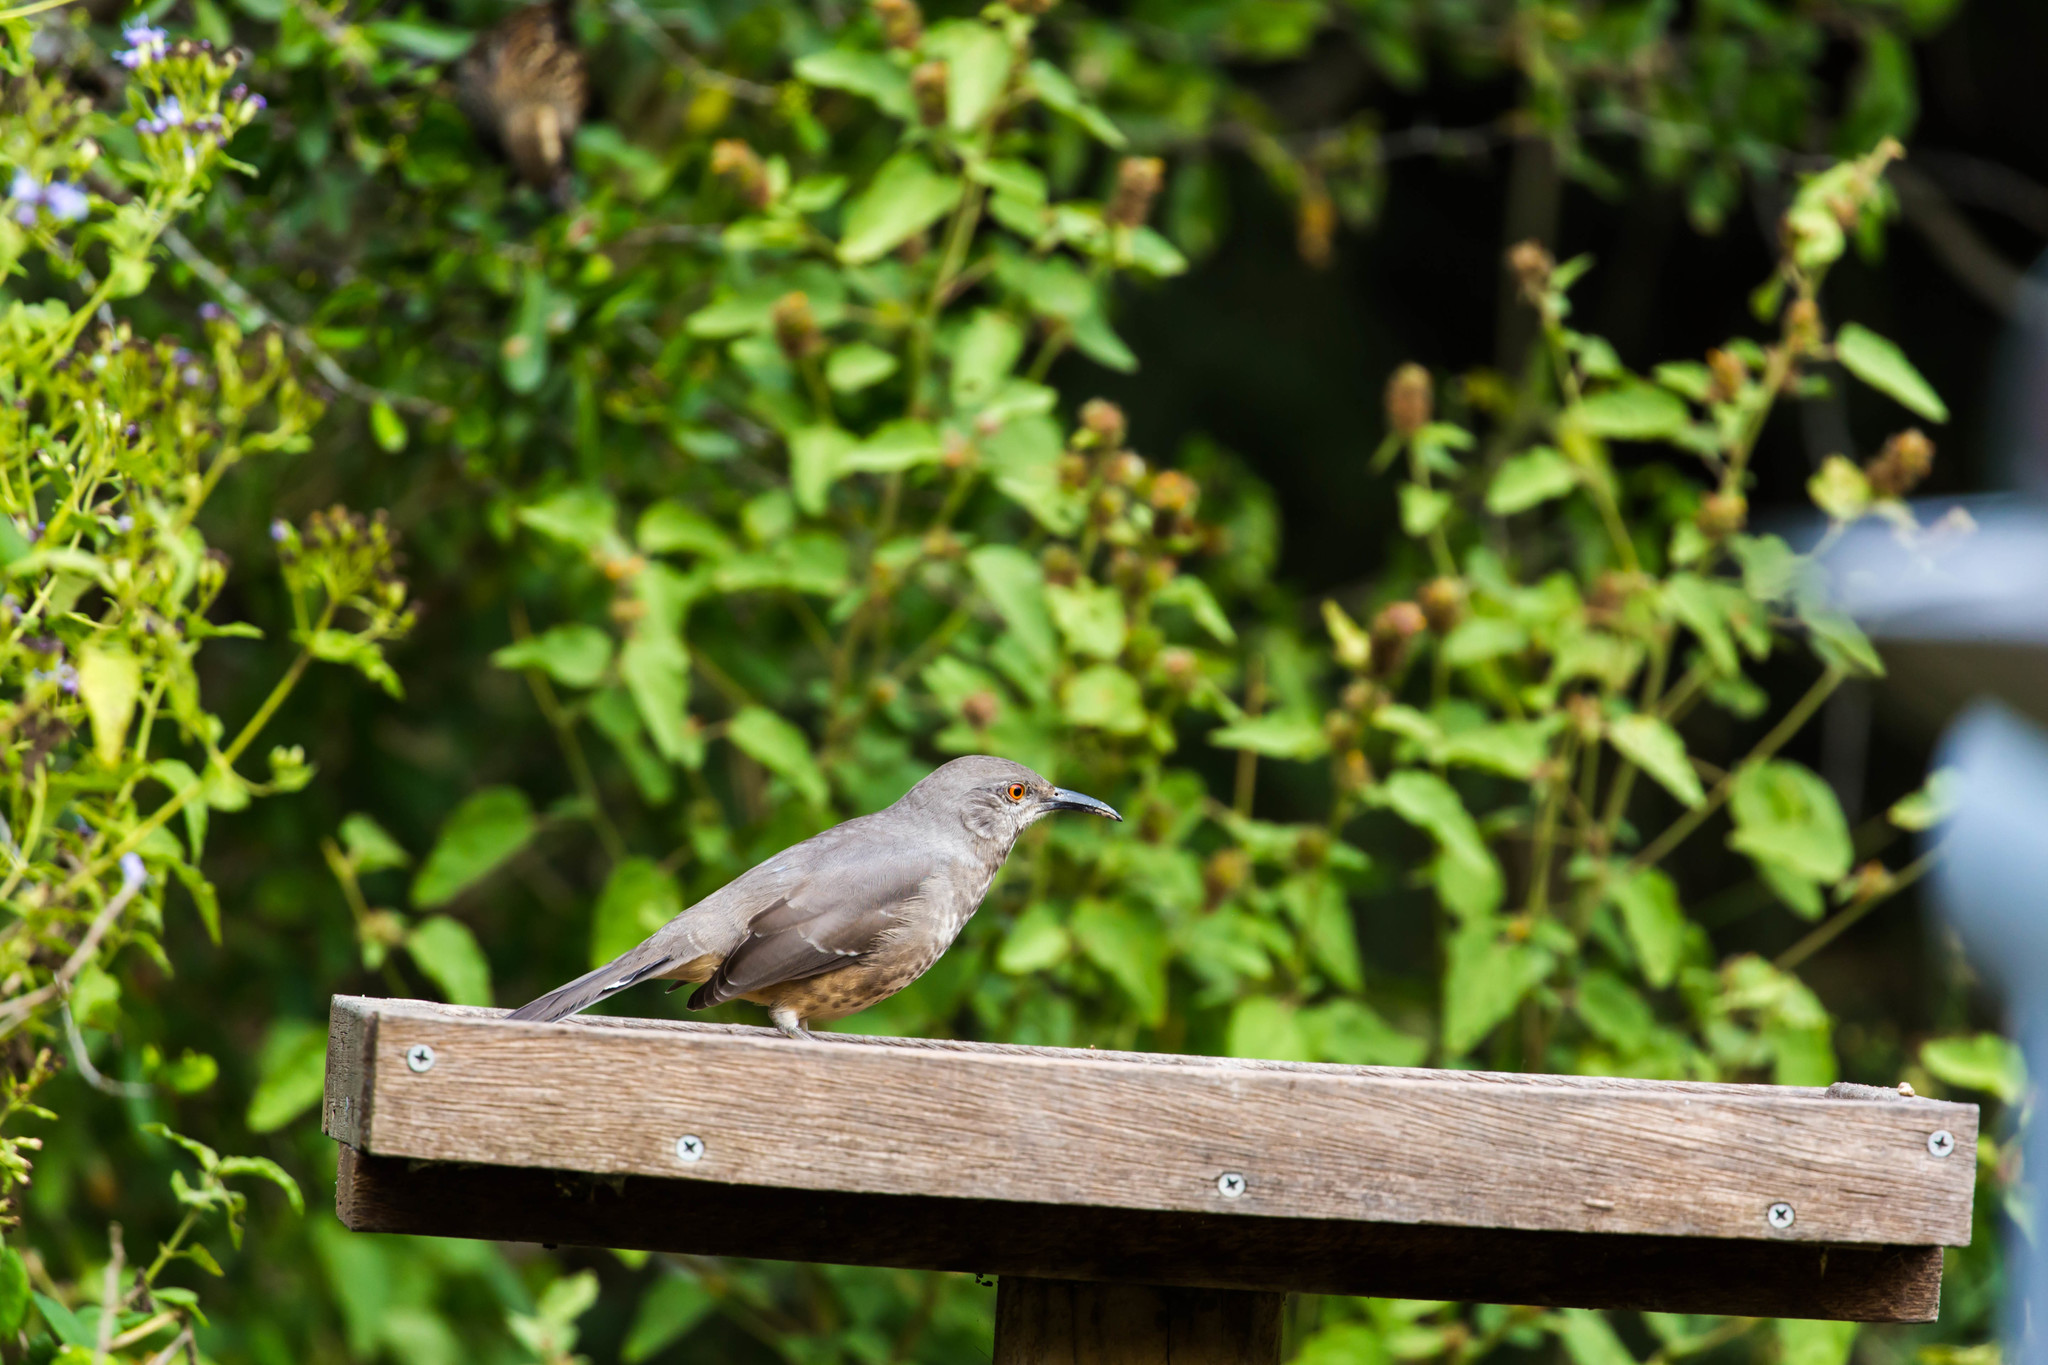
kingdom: Animalia
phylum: Chordata
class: Aves
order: Passeriformes
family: Mimidae
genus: Toxostoma
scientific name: Toxostoma curvirostre
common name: Curve-billed thrasher
